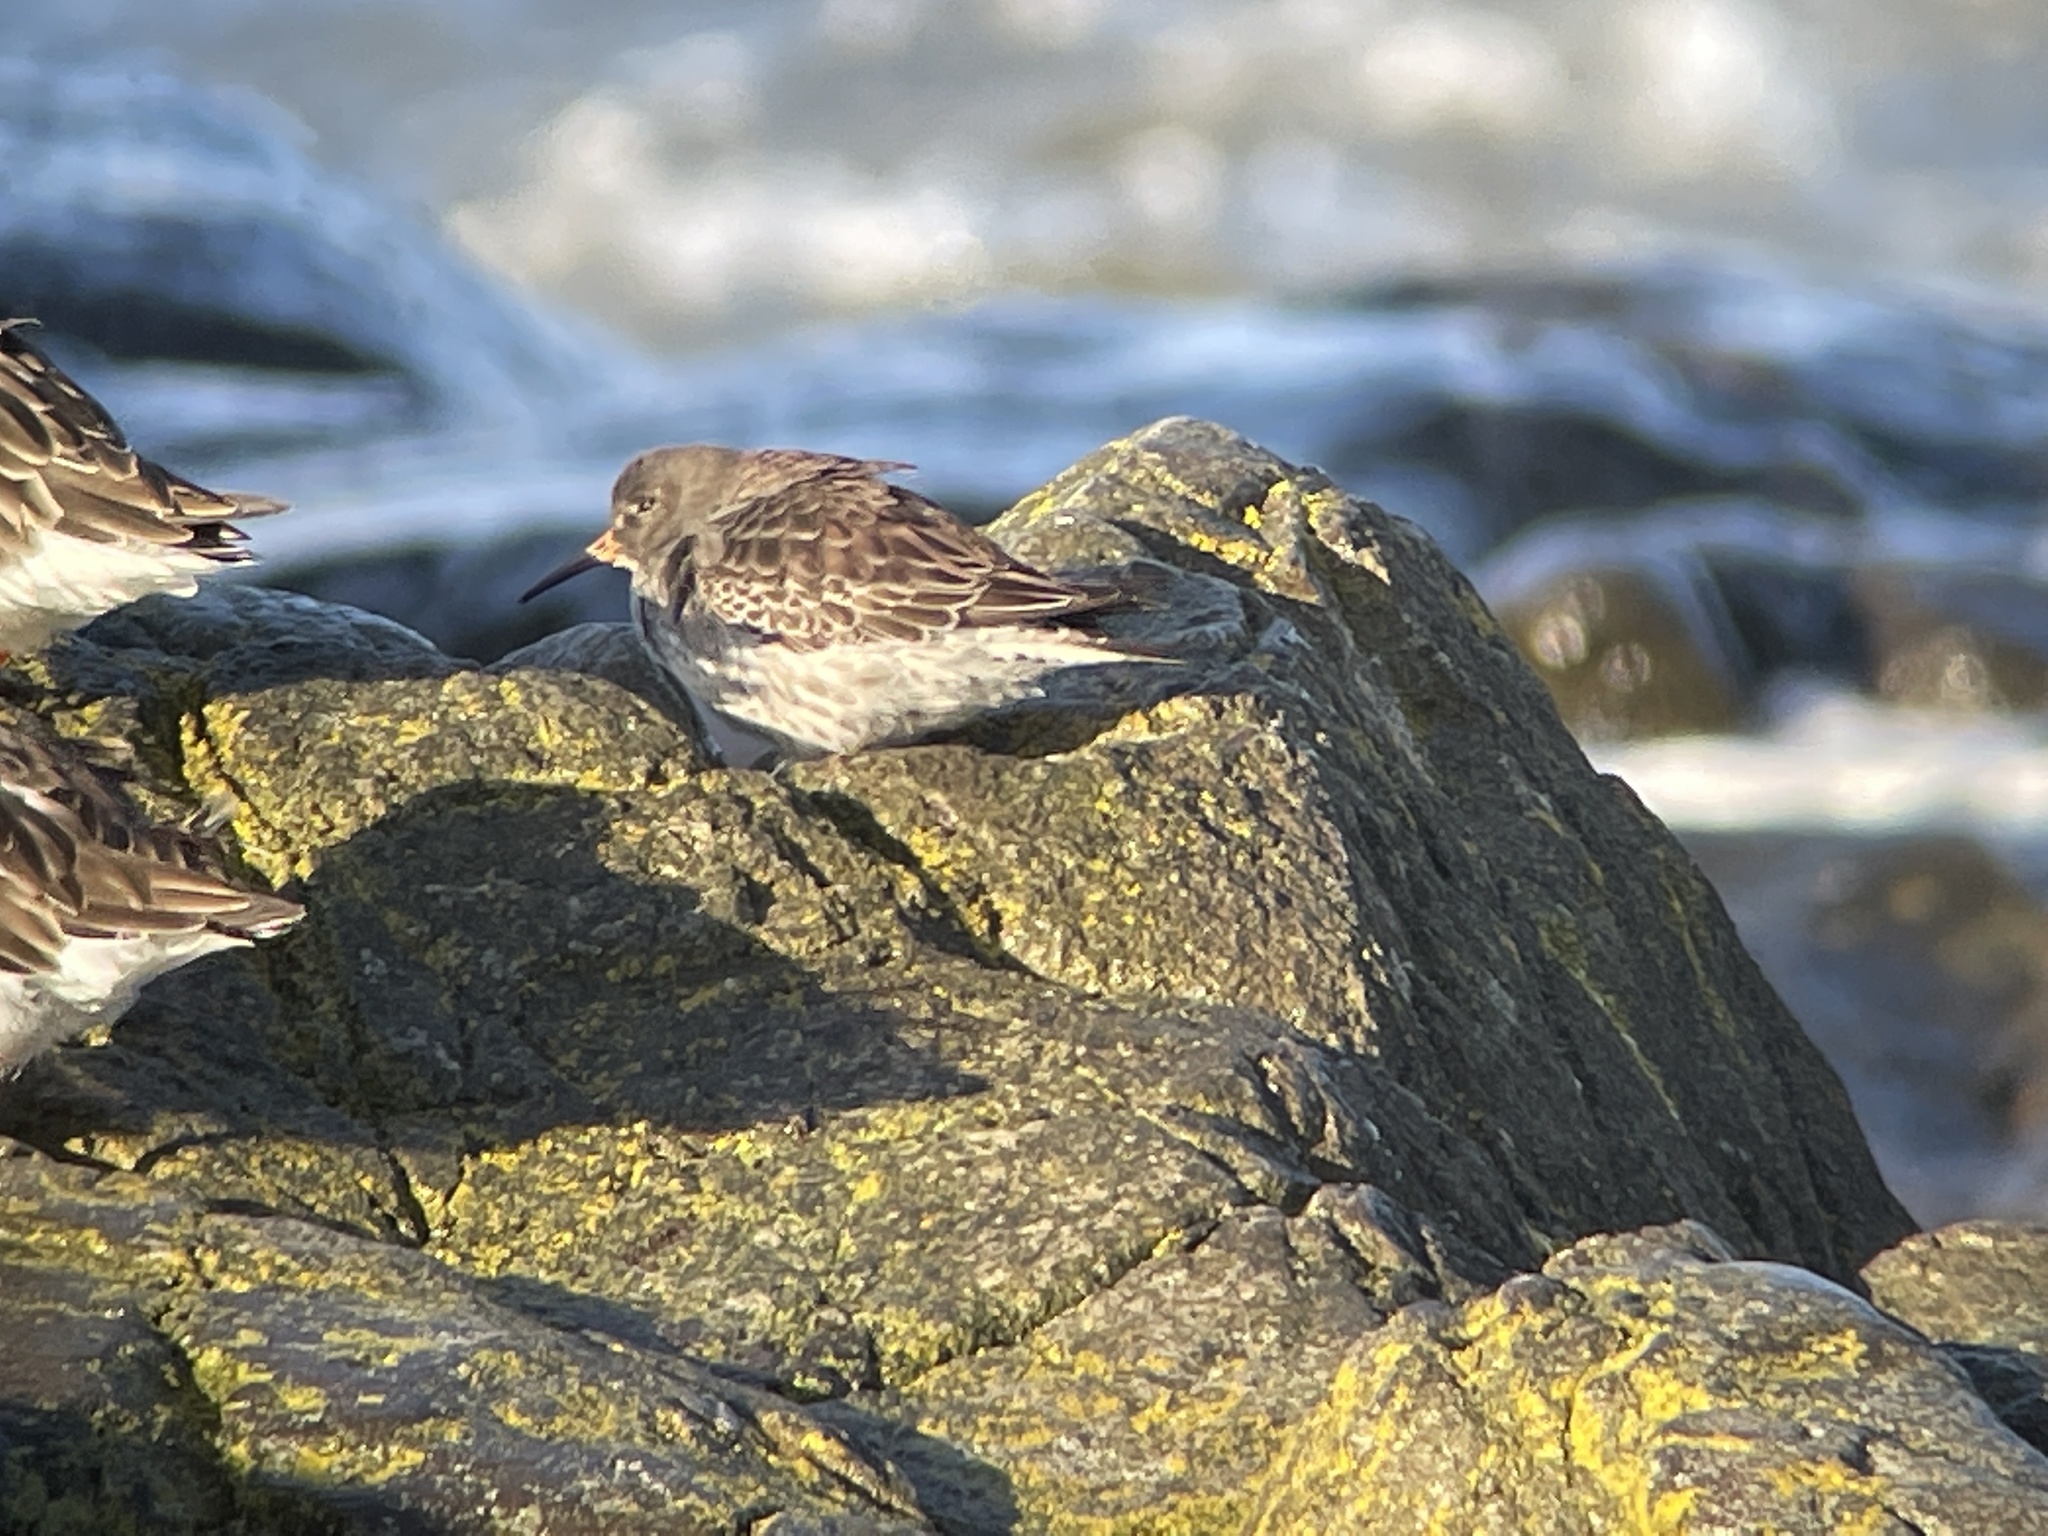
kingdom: Animalia
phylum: Chordata
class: Aves
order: Charadriiformes
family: Scolopacidae
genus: Calidris
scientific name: Calidris maritima
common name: Purple sandpiper
